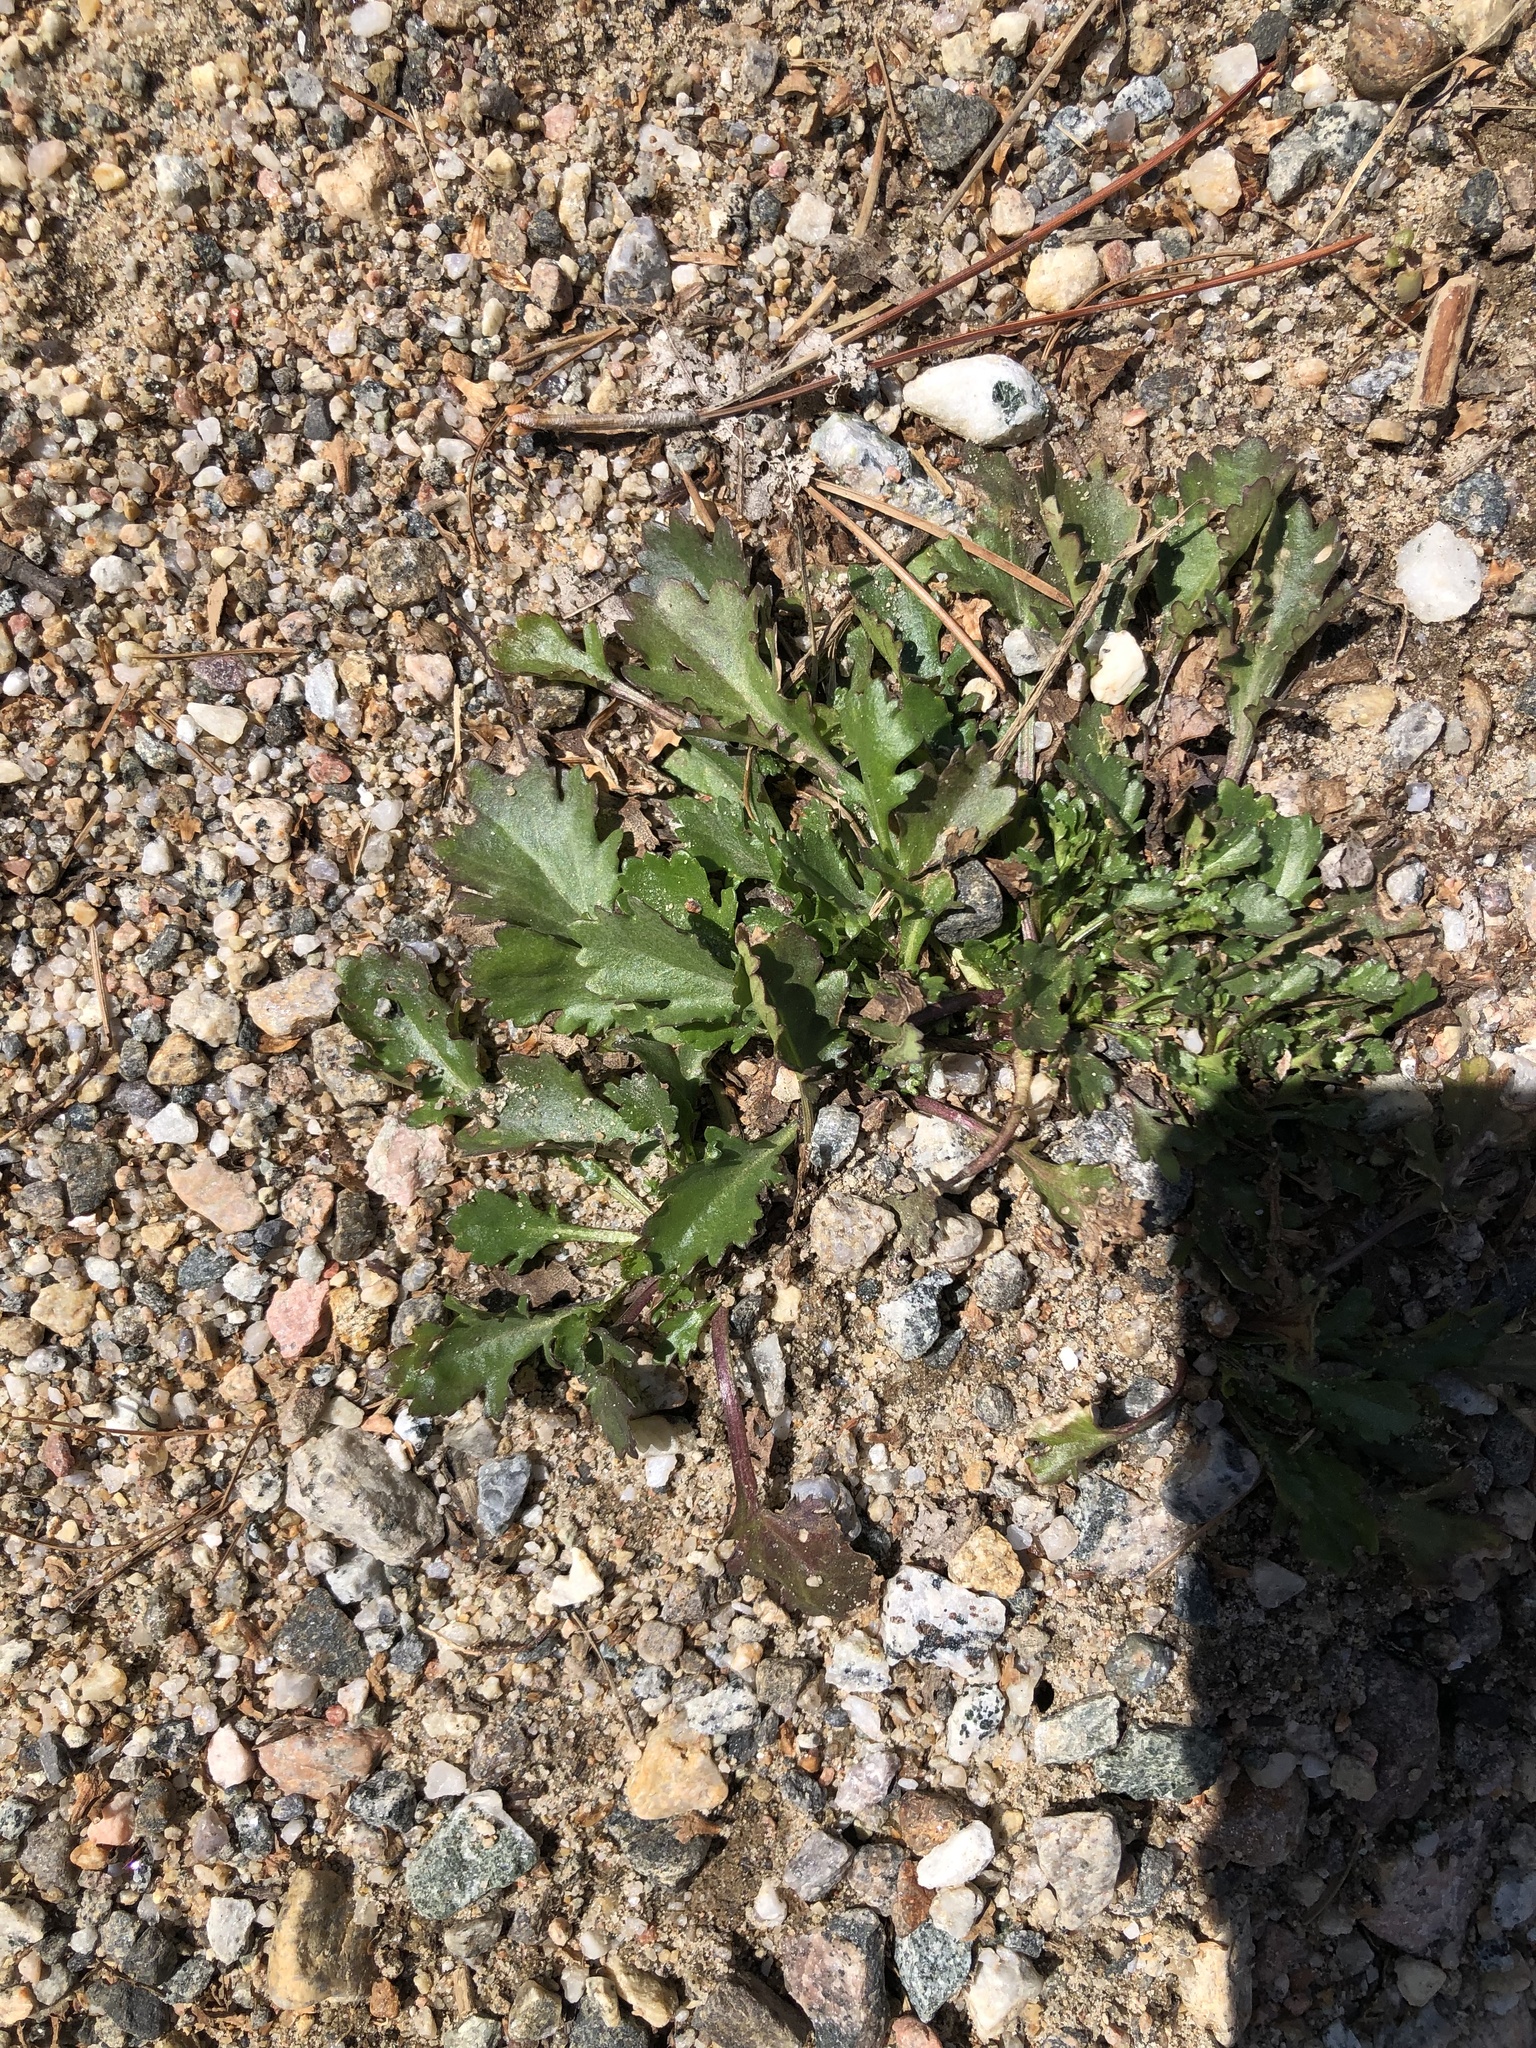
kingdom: Plantae
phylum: Tracheophyta
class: Magnoliopsida
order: Asterales
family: Asteraceae
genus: Leucanthemum
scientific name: Leucanthemum vulgare
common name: Oxeye daisy
